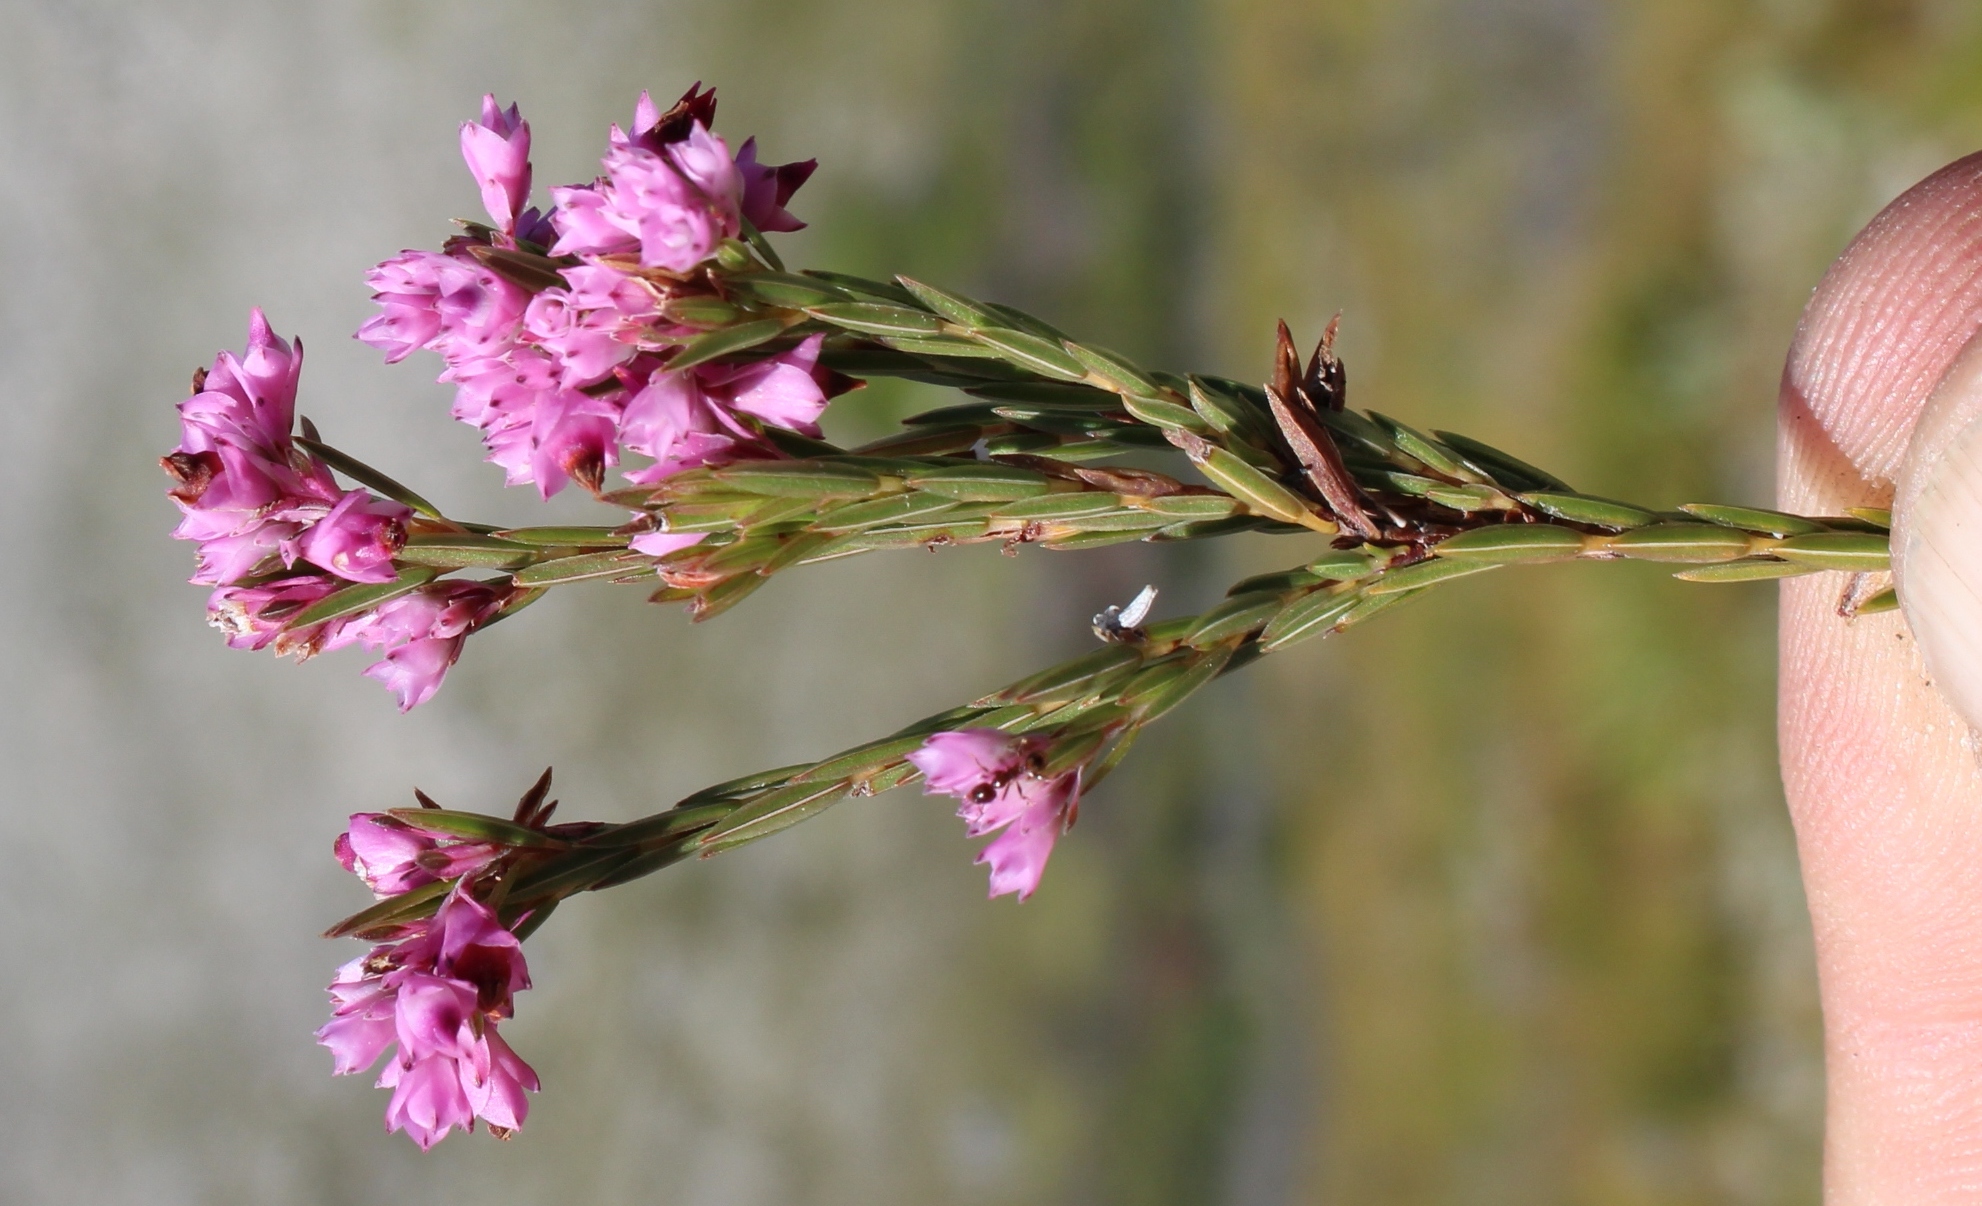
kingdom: Plantae
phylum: Tracheophyta
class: Magnoliopsida
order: Ericales
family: Ericaceae
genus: Erica
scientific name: Erica corifolia
